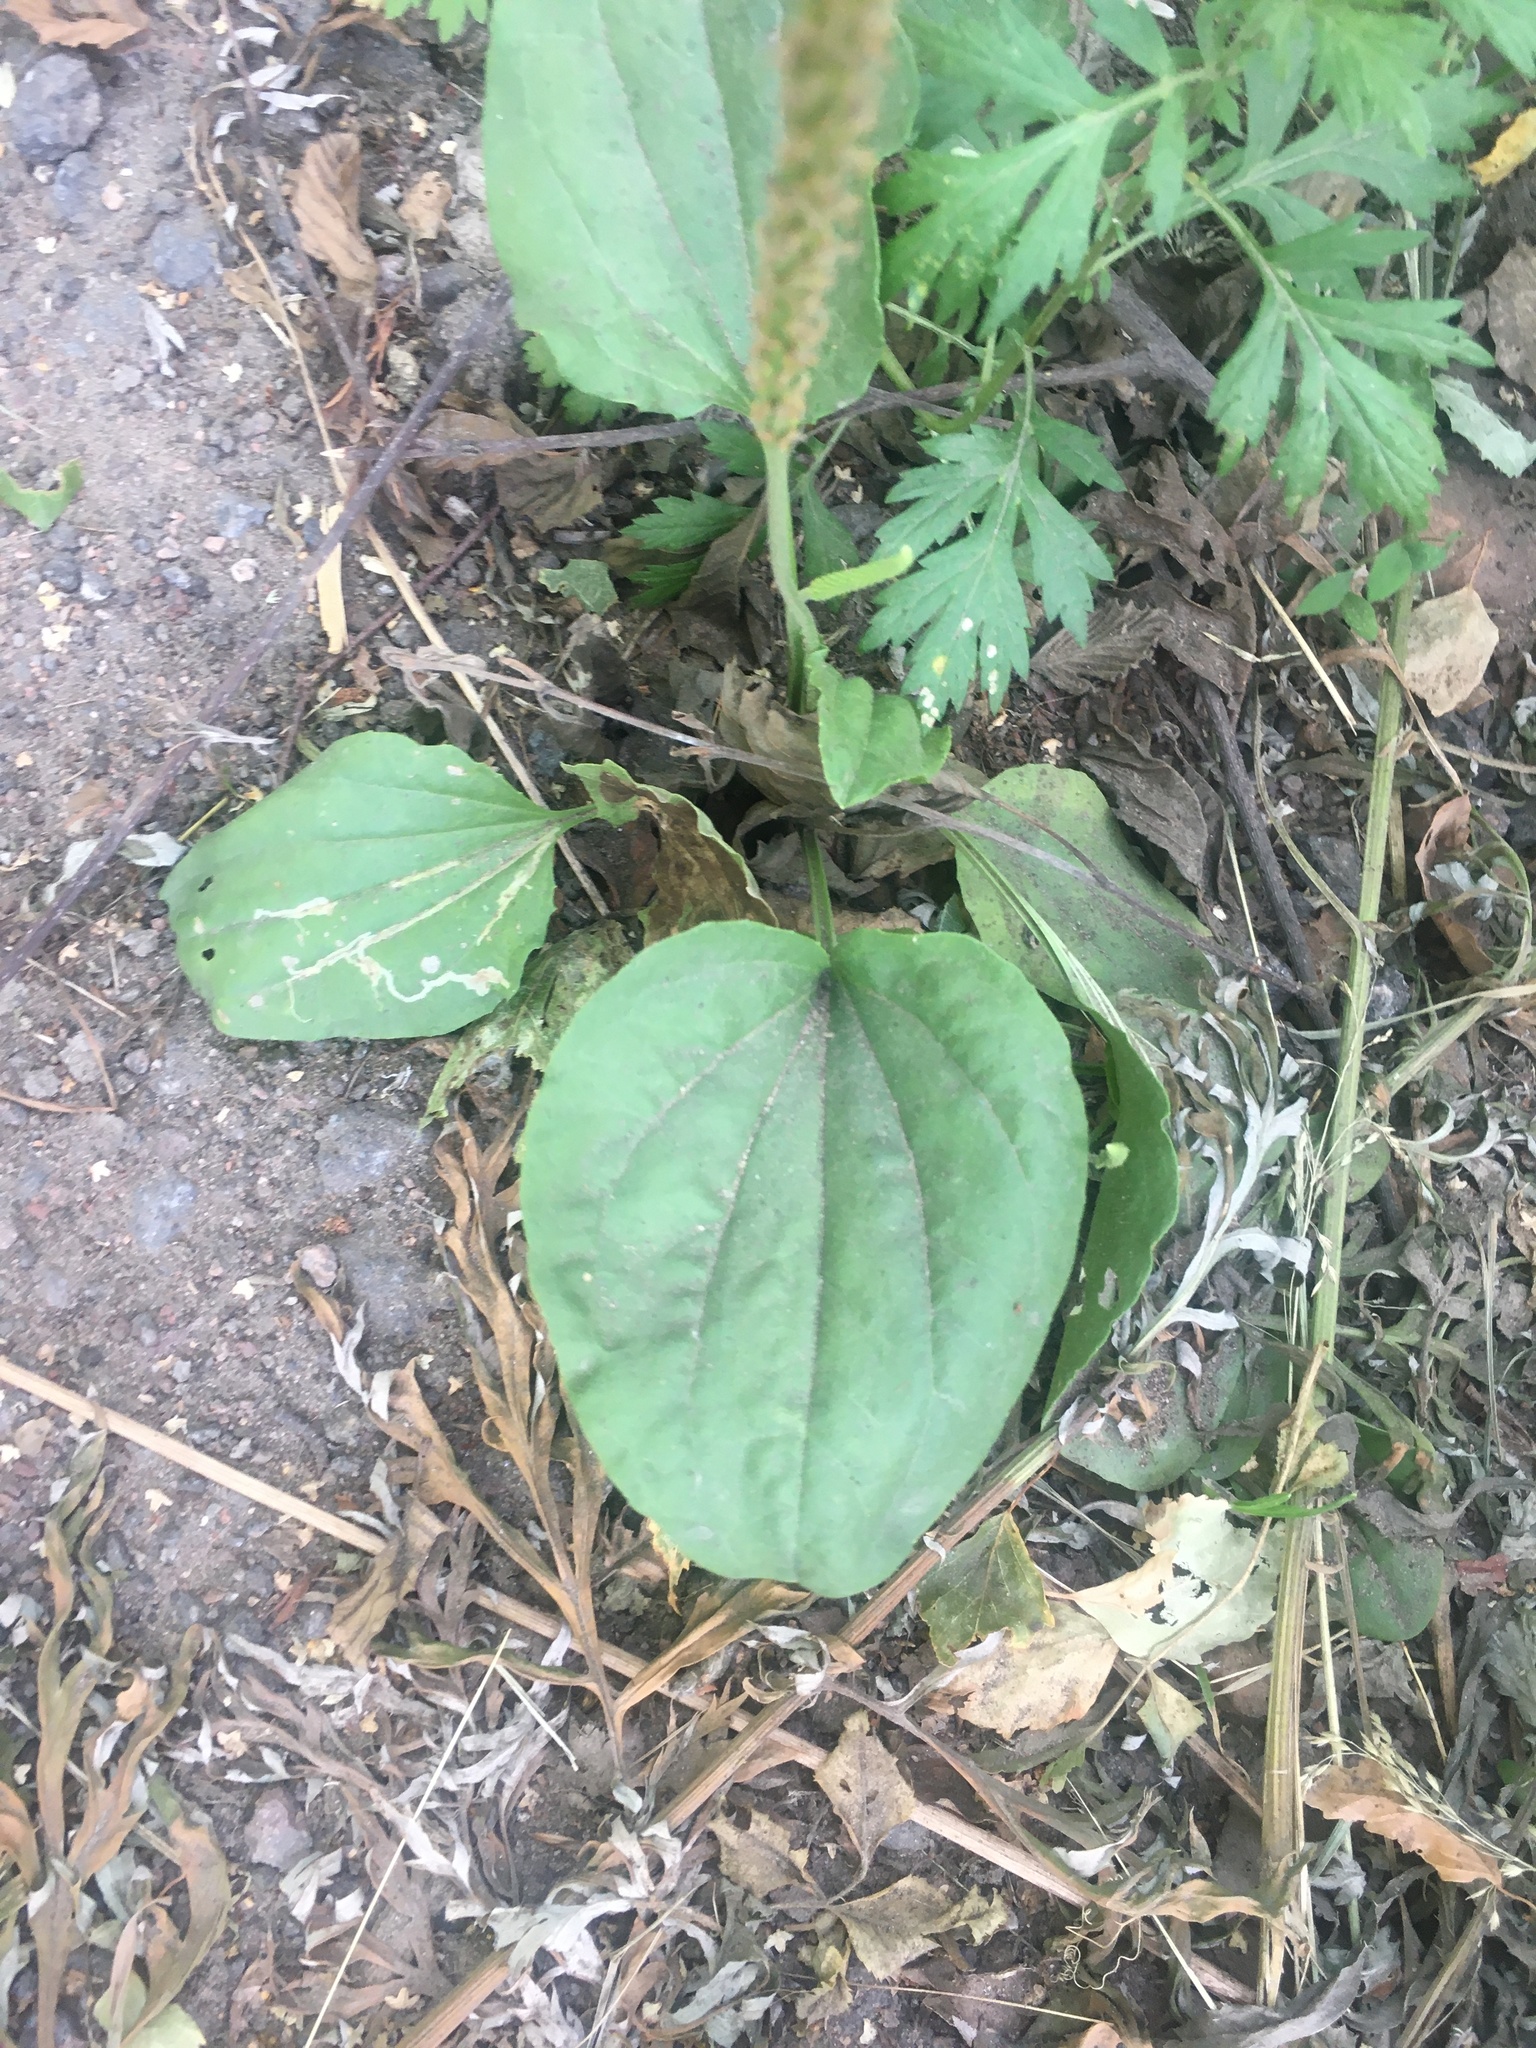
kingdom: Plantae
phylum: Tracheophyta
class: Magnoliopsida
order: Lamiales
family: Plantaginaceae
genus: Plantago
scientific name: Plantago major
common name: Common plantain
